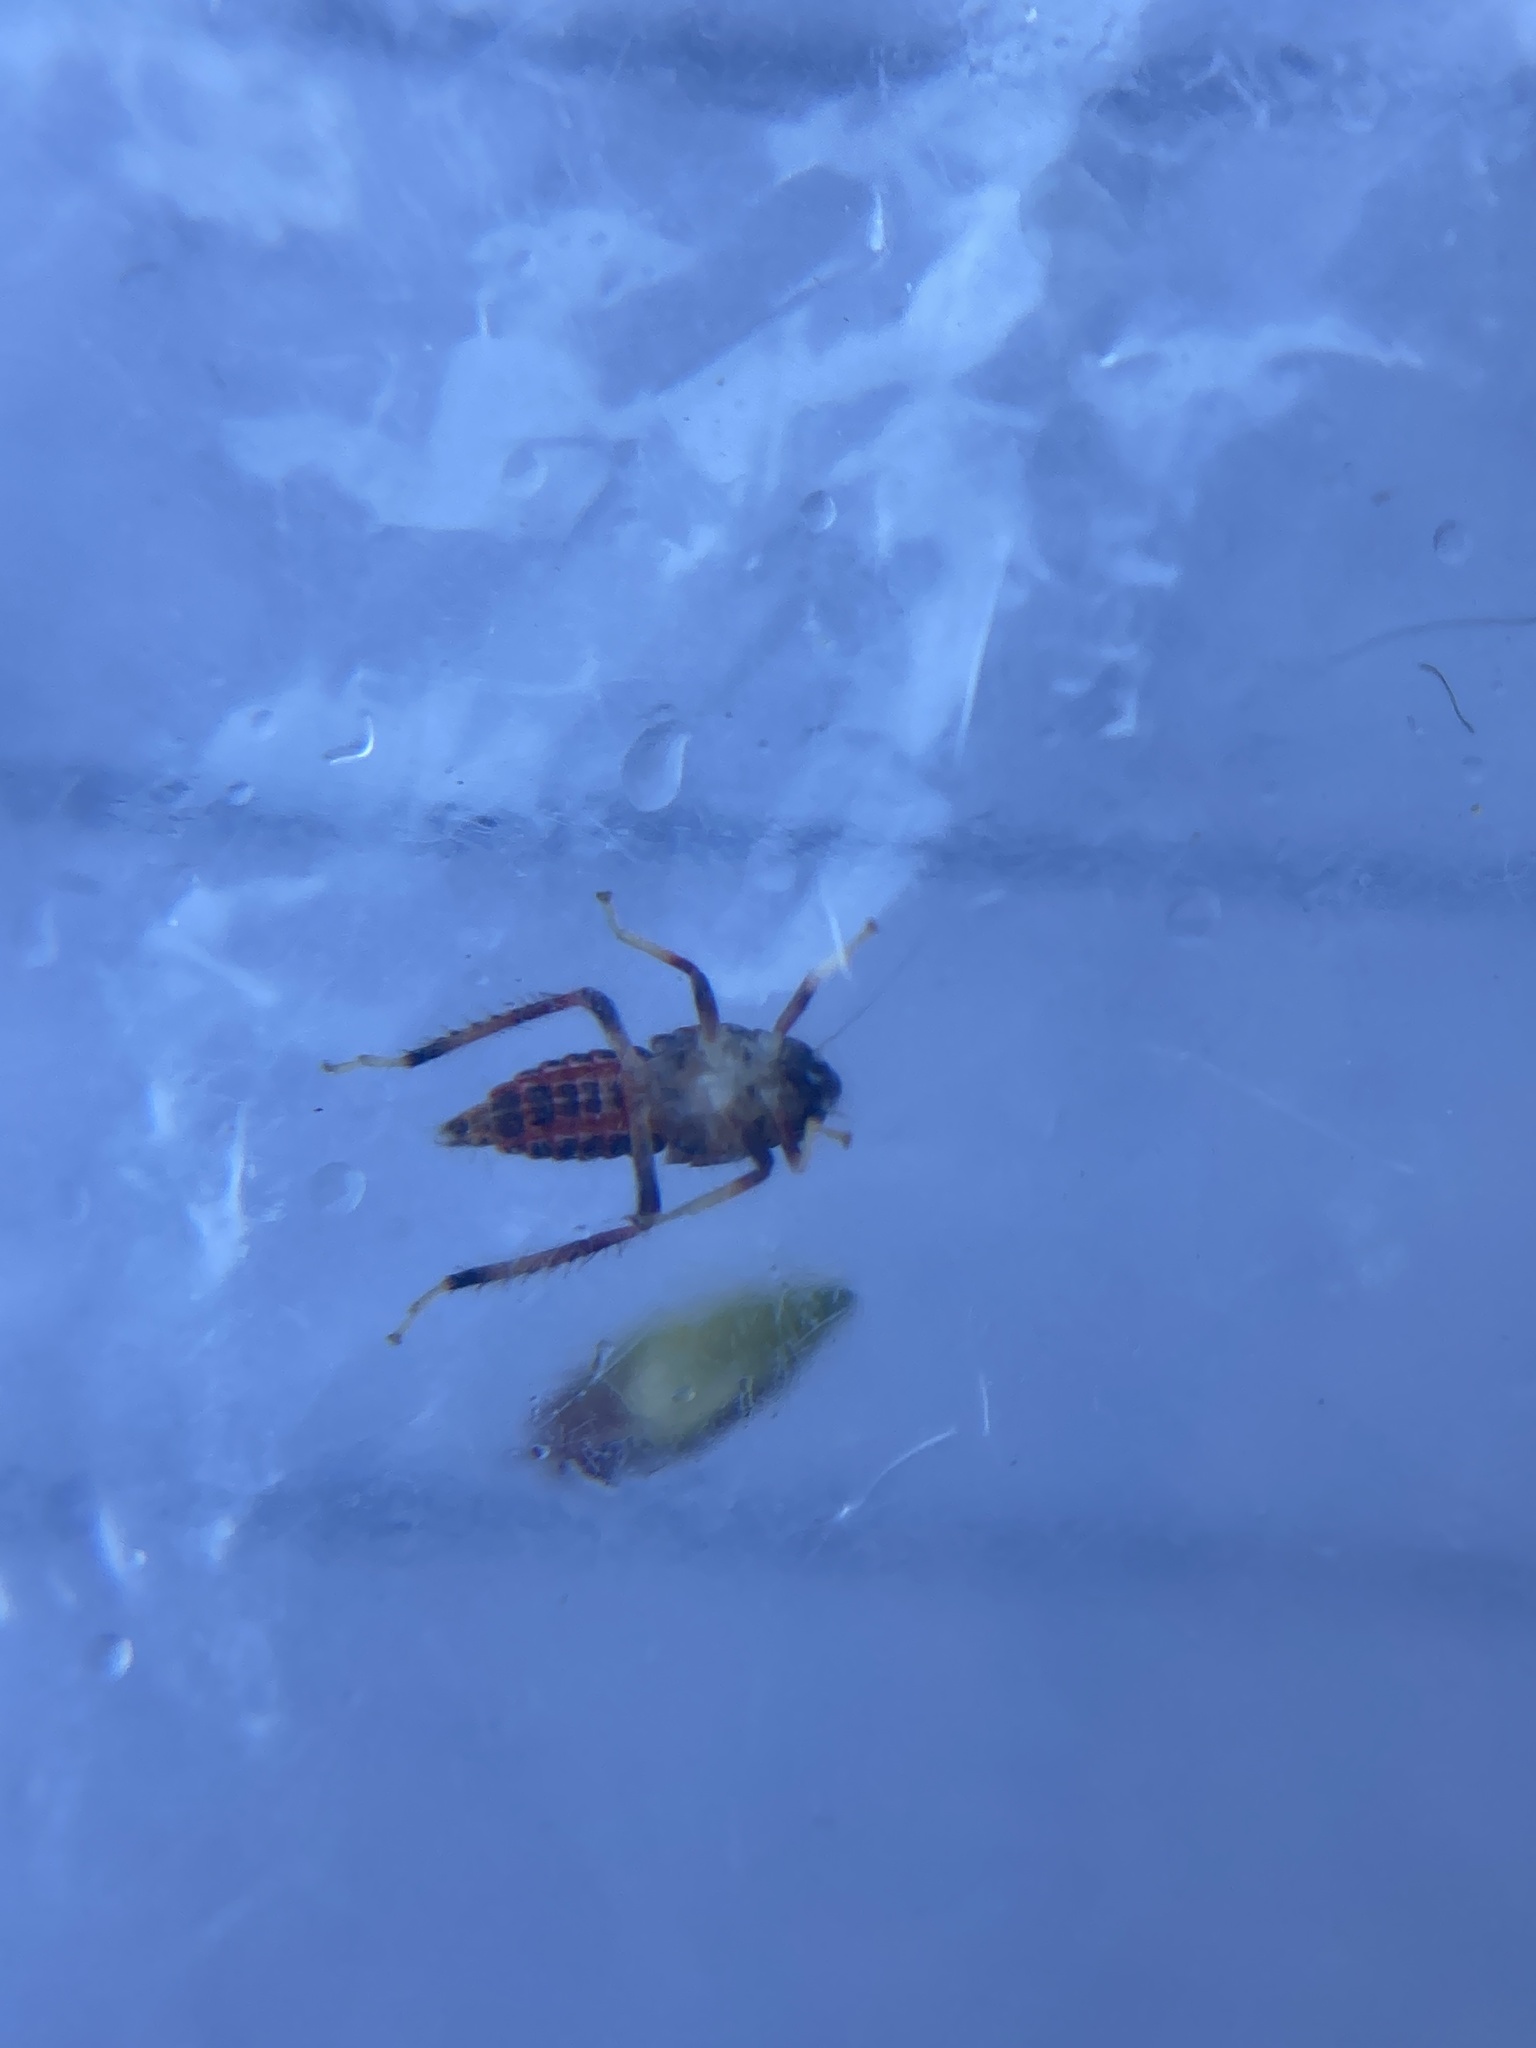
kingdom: Animalia
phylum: Arthropoda
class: Insecta
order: Hemiptera
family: Cicadellidae
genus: Orientus
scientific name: Orientus ishidae
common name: Japanese leafhopper
